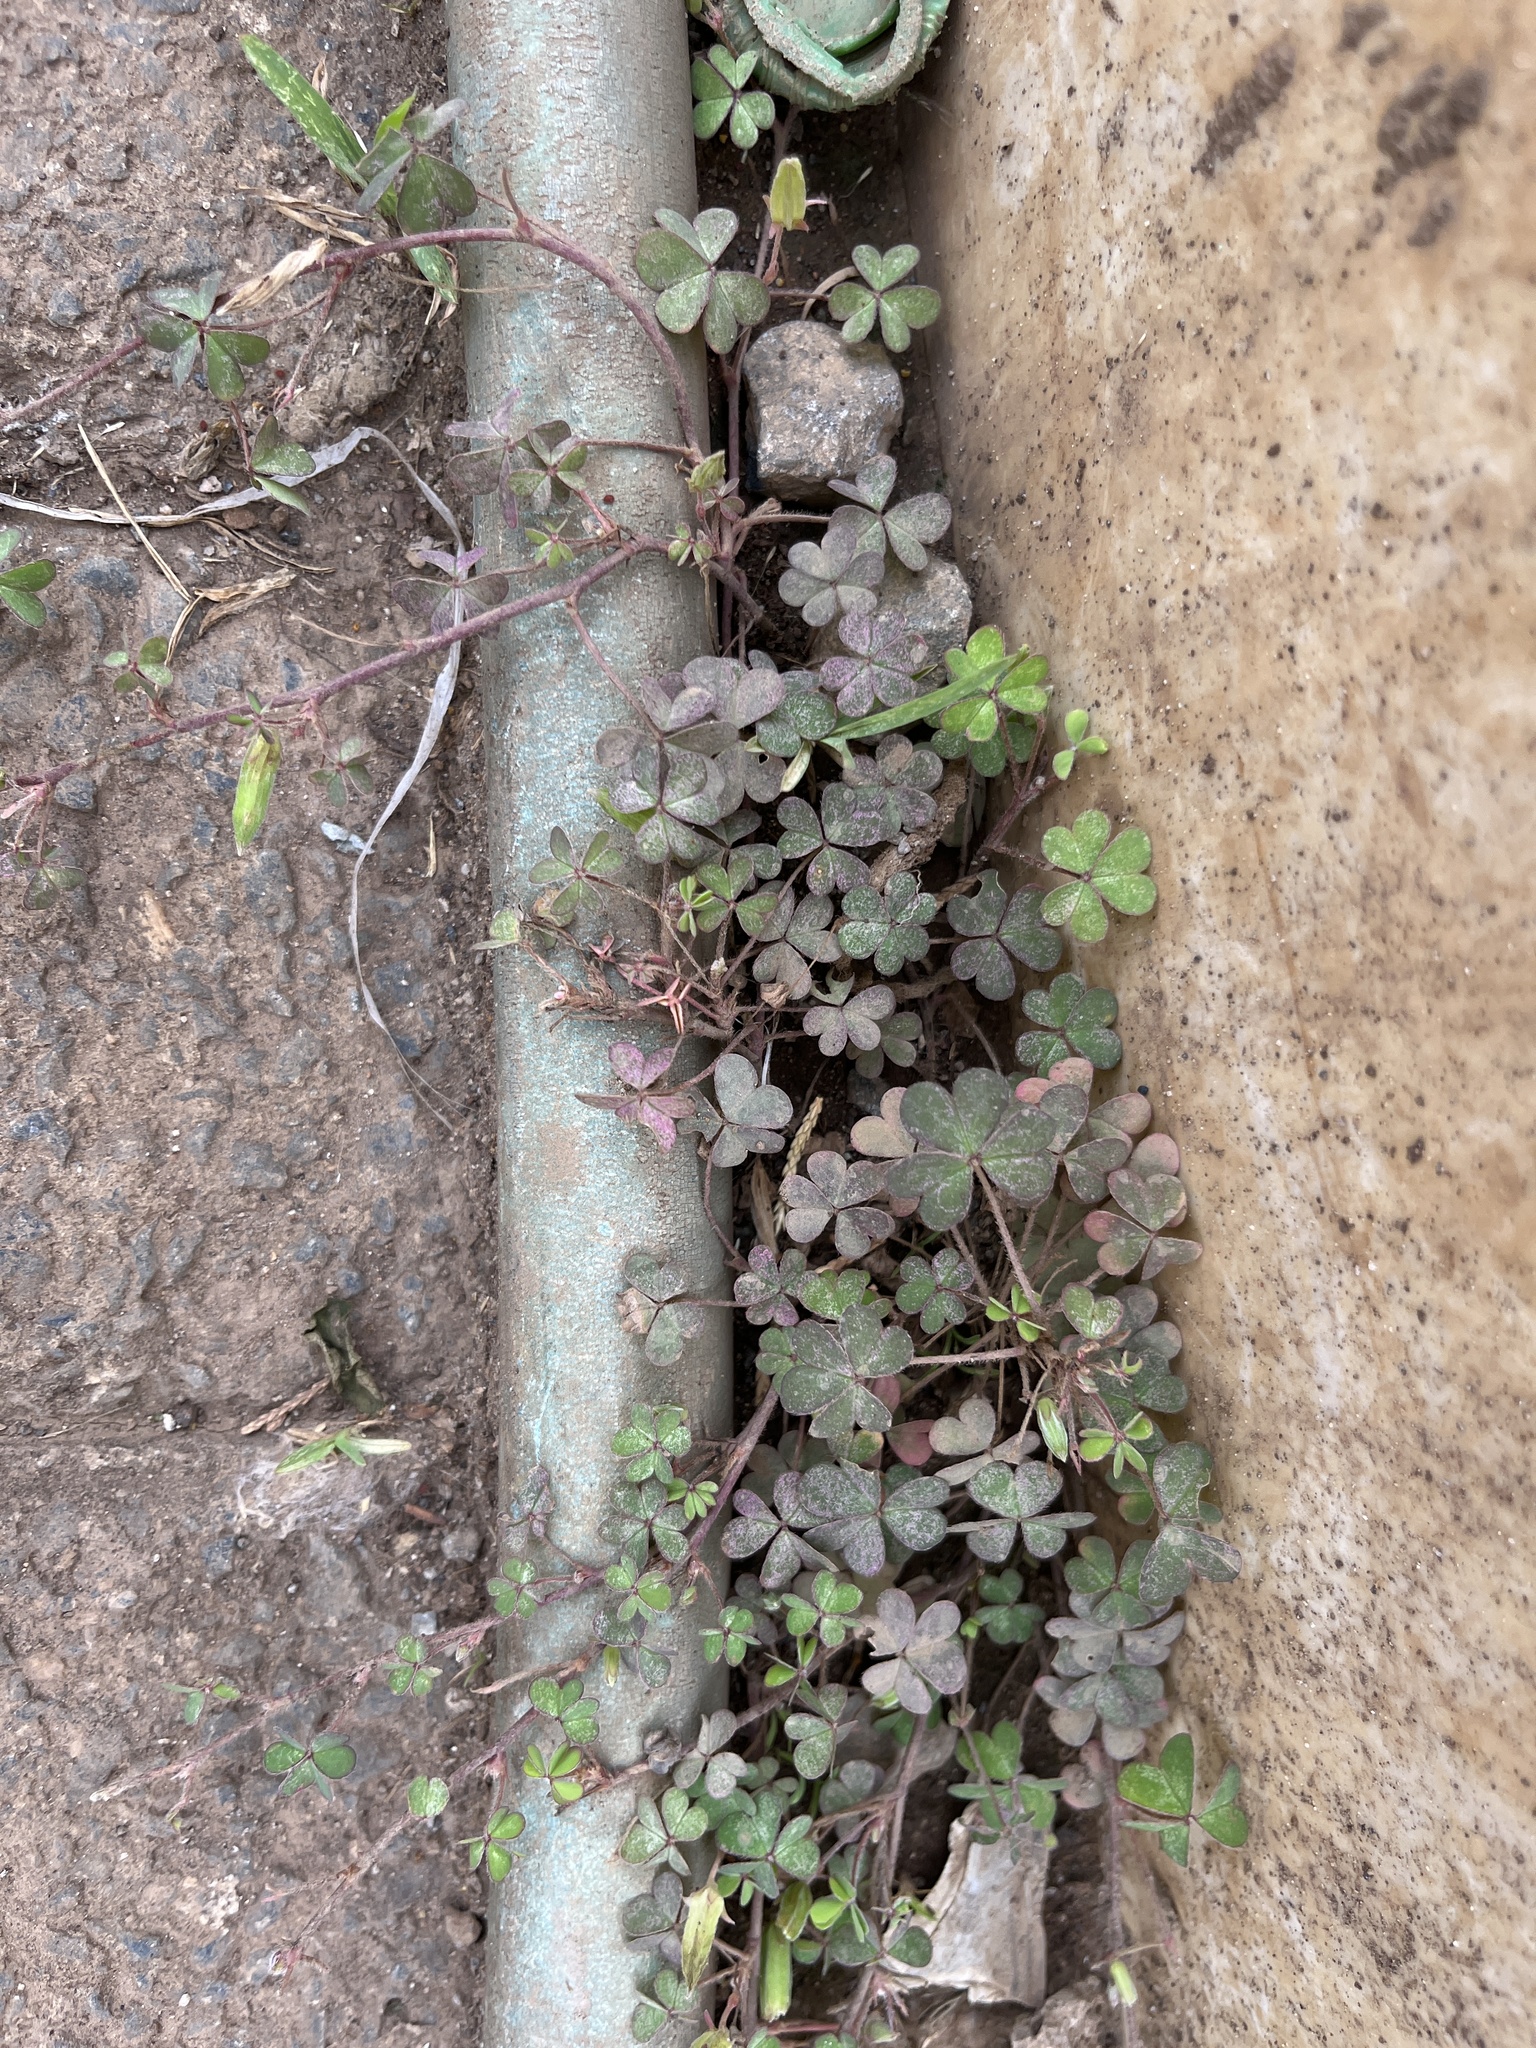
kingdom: Plantae
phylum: Tracheophyta
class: Magnoliopsida
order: Oxalidales
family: Oxalidaceae
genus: Oxalis
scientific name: Oxalis corniculata
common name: Procumbent yellow-sorrel
